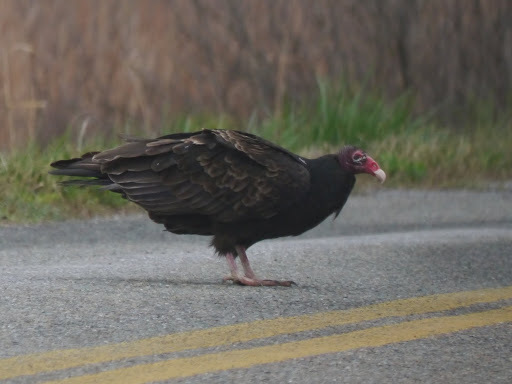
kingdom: Animalia
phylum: Chordata
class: Aves
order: Accipitriformes
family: Cathartidae
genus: Cathartes
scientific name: Cathartes aura
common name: Turkey vulture
